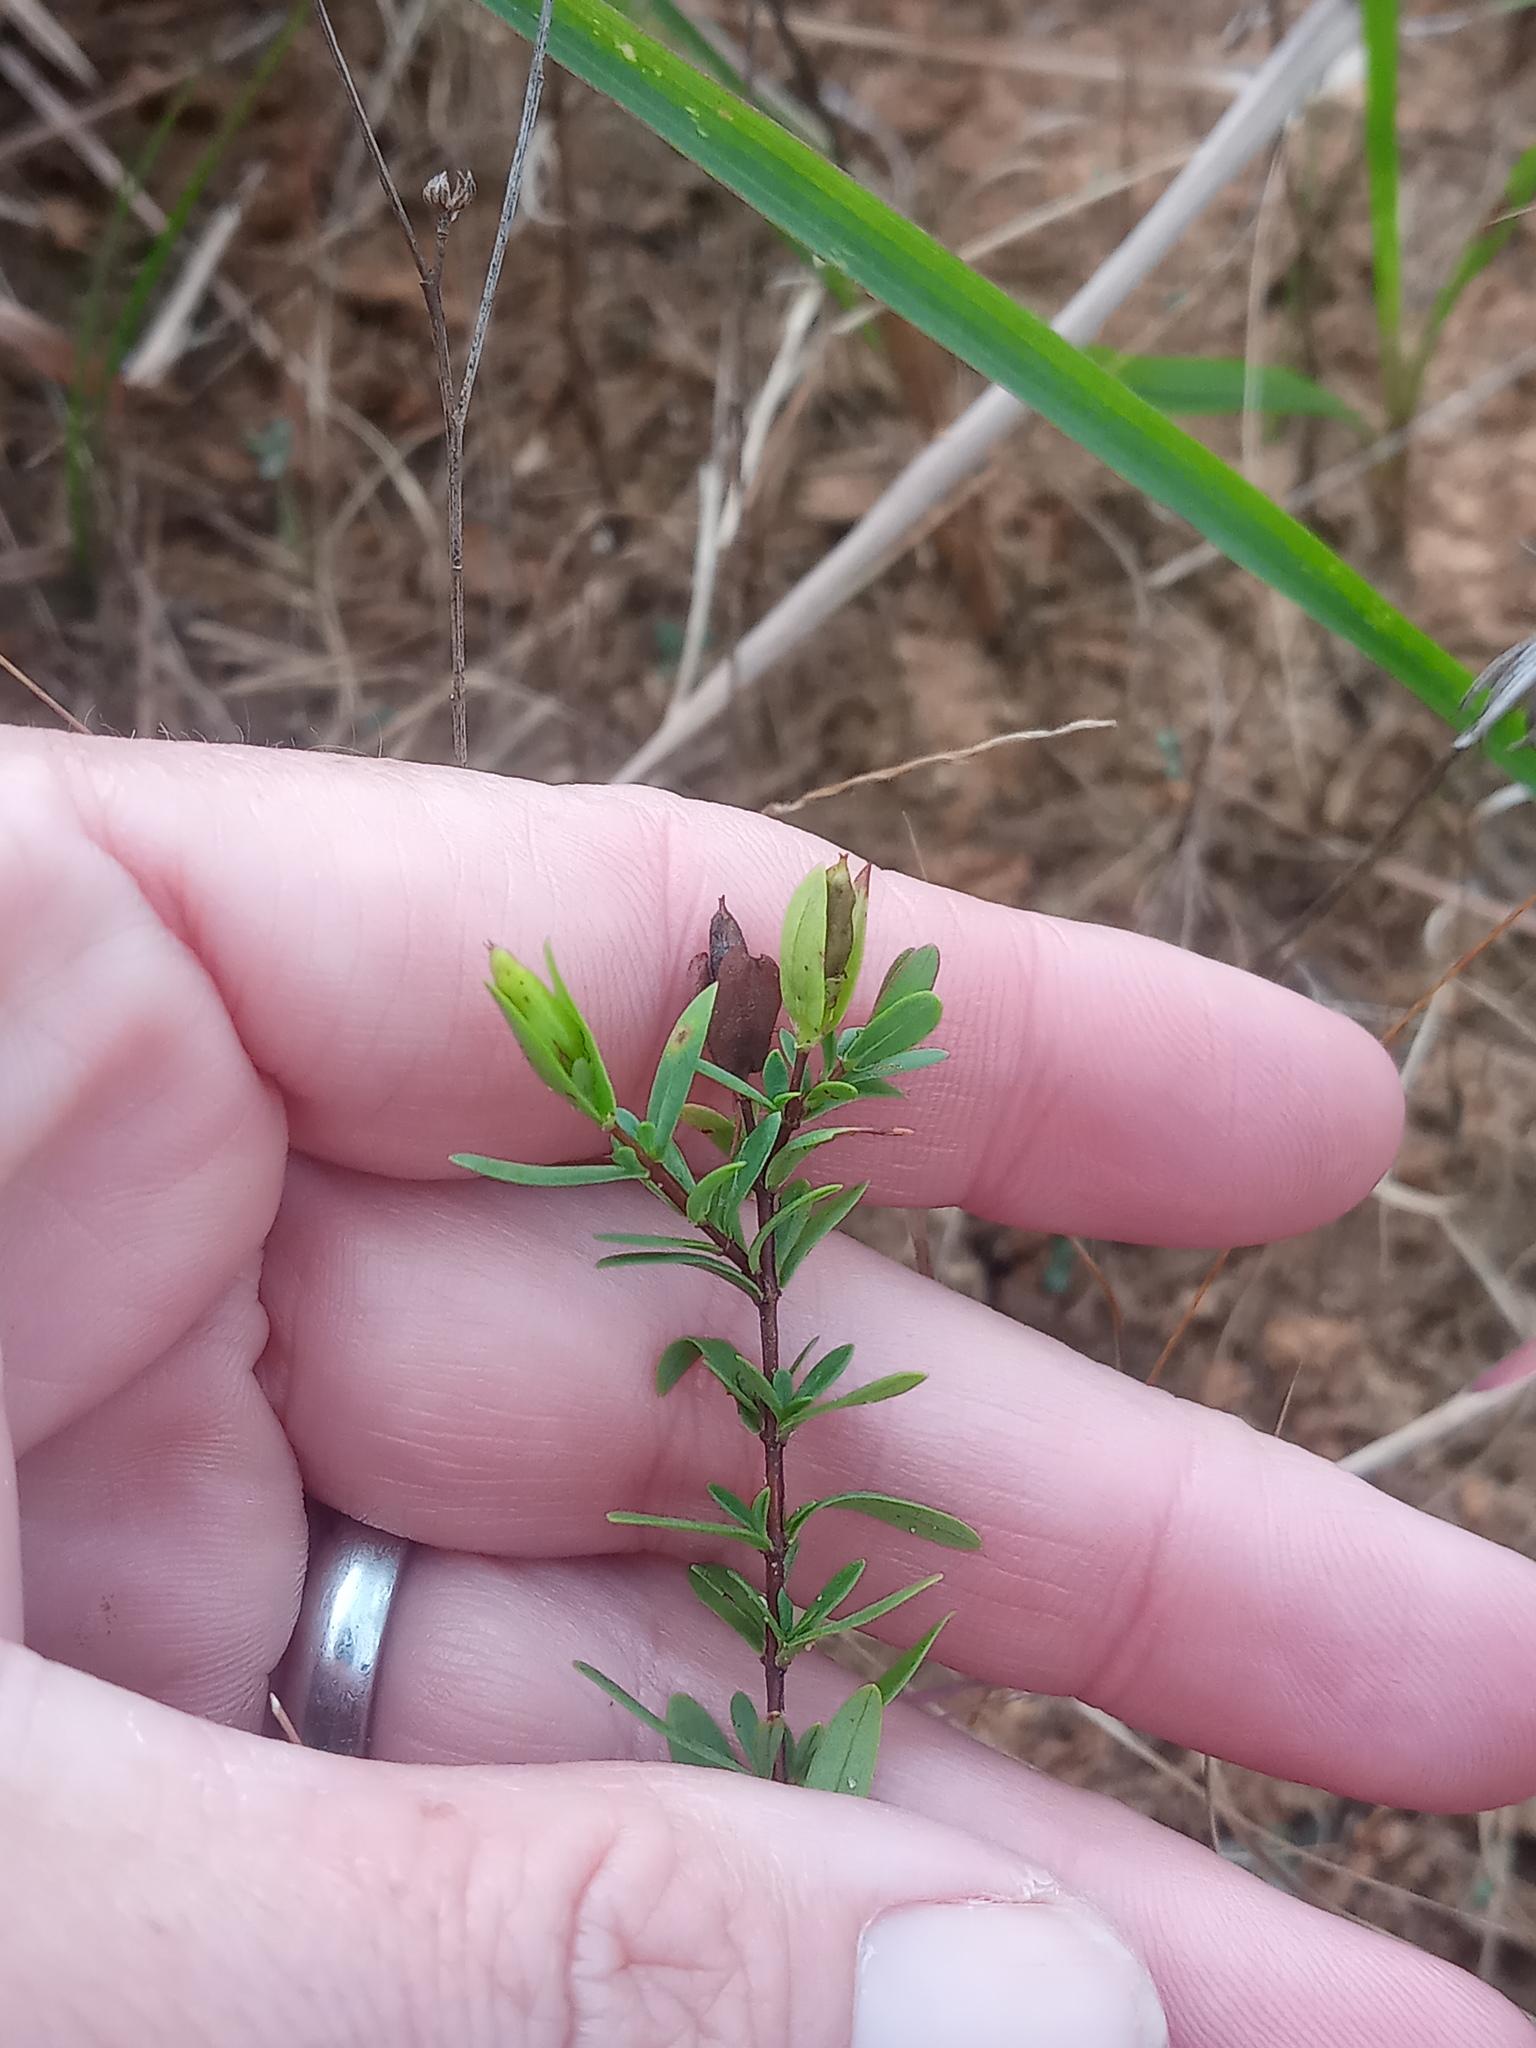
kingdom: Plantae
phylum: Tracheophyta
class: Magnoliopsida
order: Malpighiales
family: Hypericaceae
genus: Hypericum
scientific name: Hypericum hypericoides
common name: St. andrew's cross
